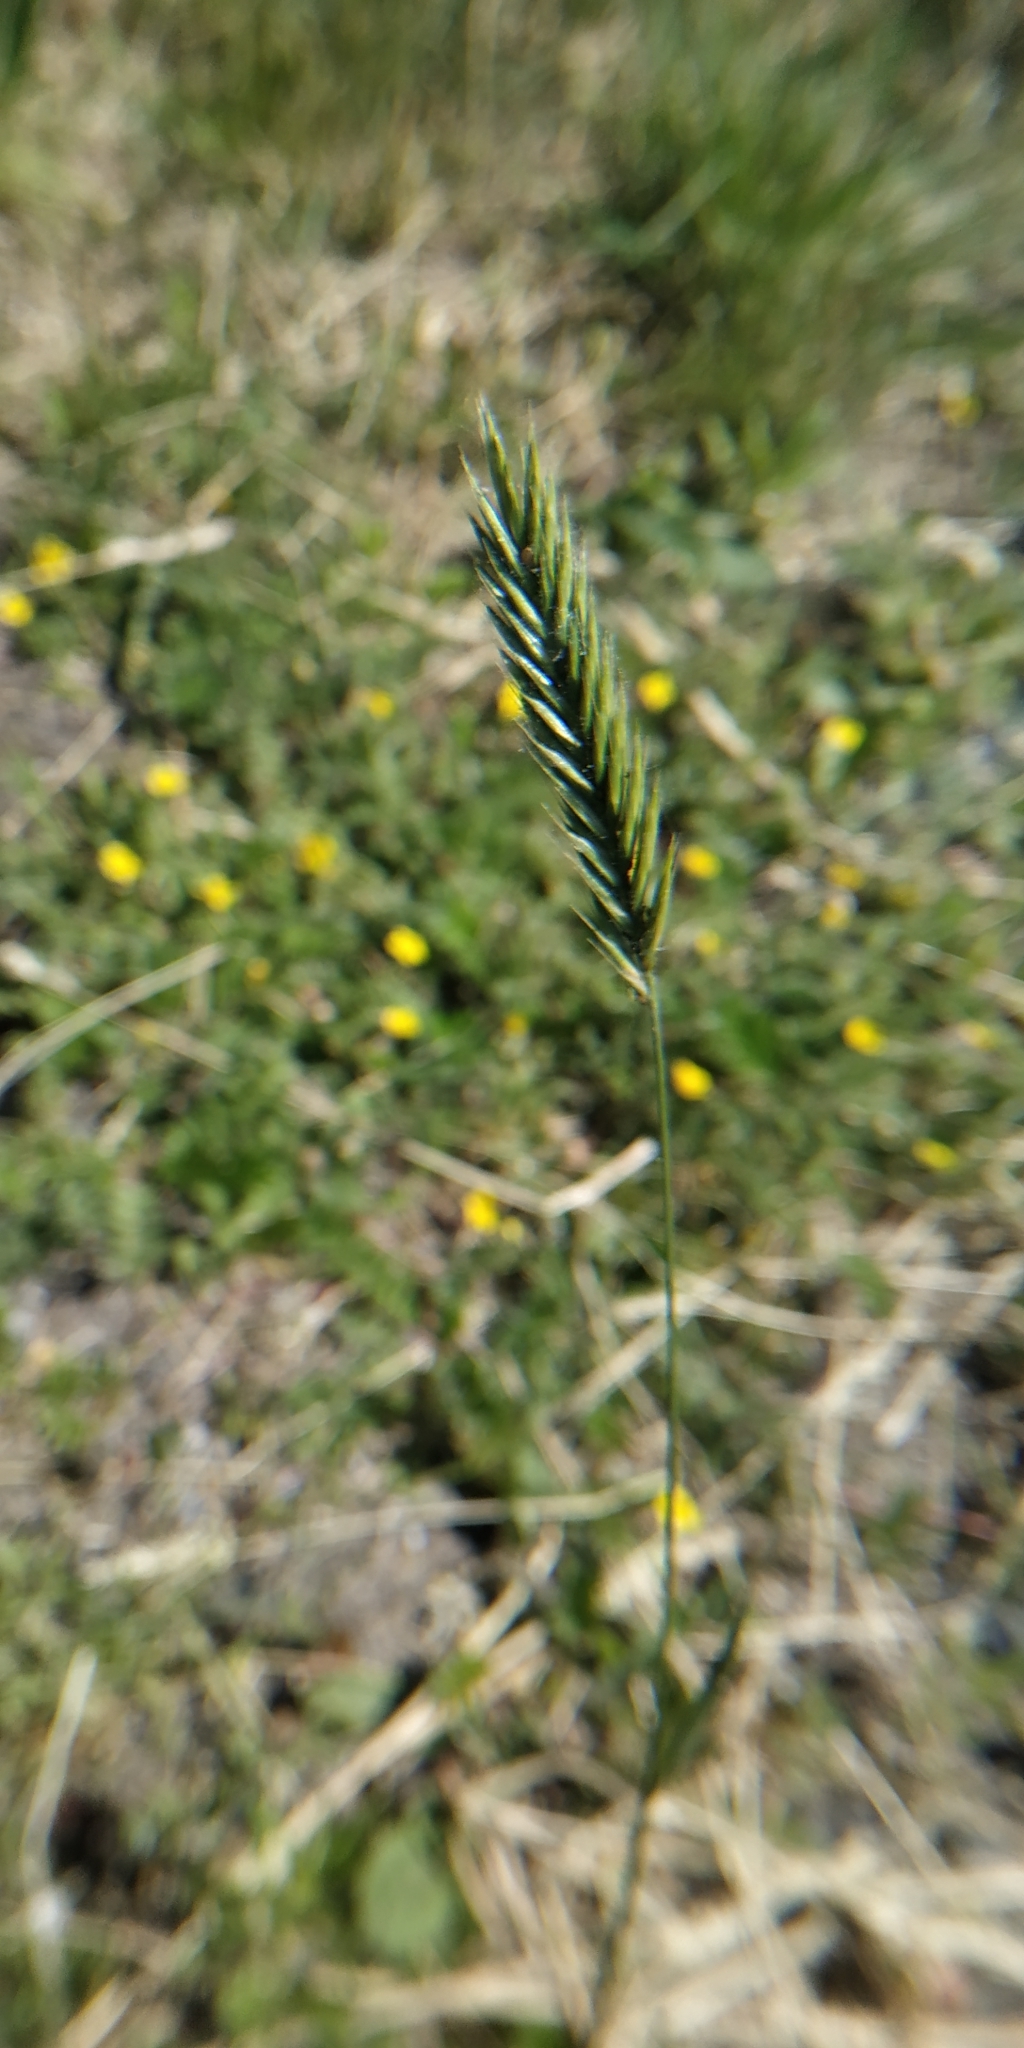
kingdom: Plantae
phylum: Tracheophyta
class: Liliopsida
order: Poales
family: Poaceae
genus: Agropyron
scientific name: Agropyron cristatum
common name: Crested wheatgrass
